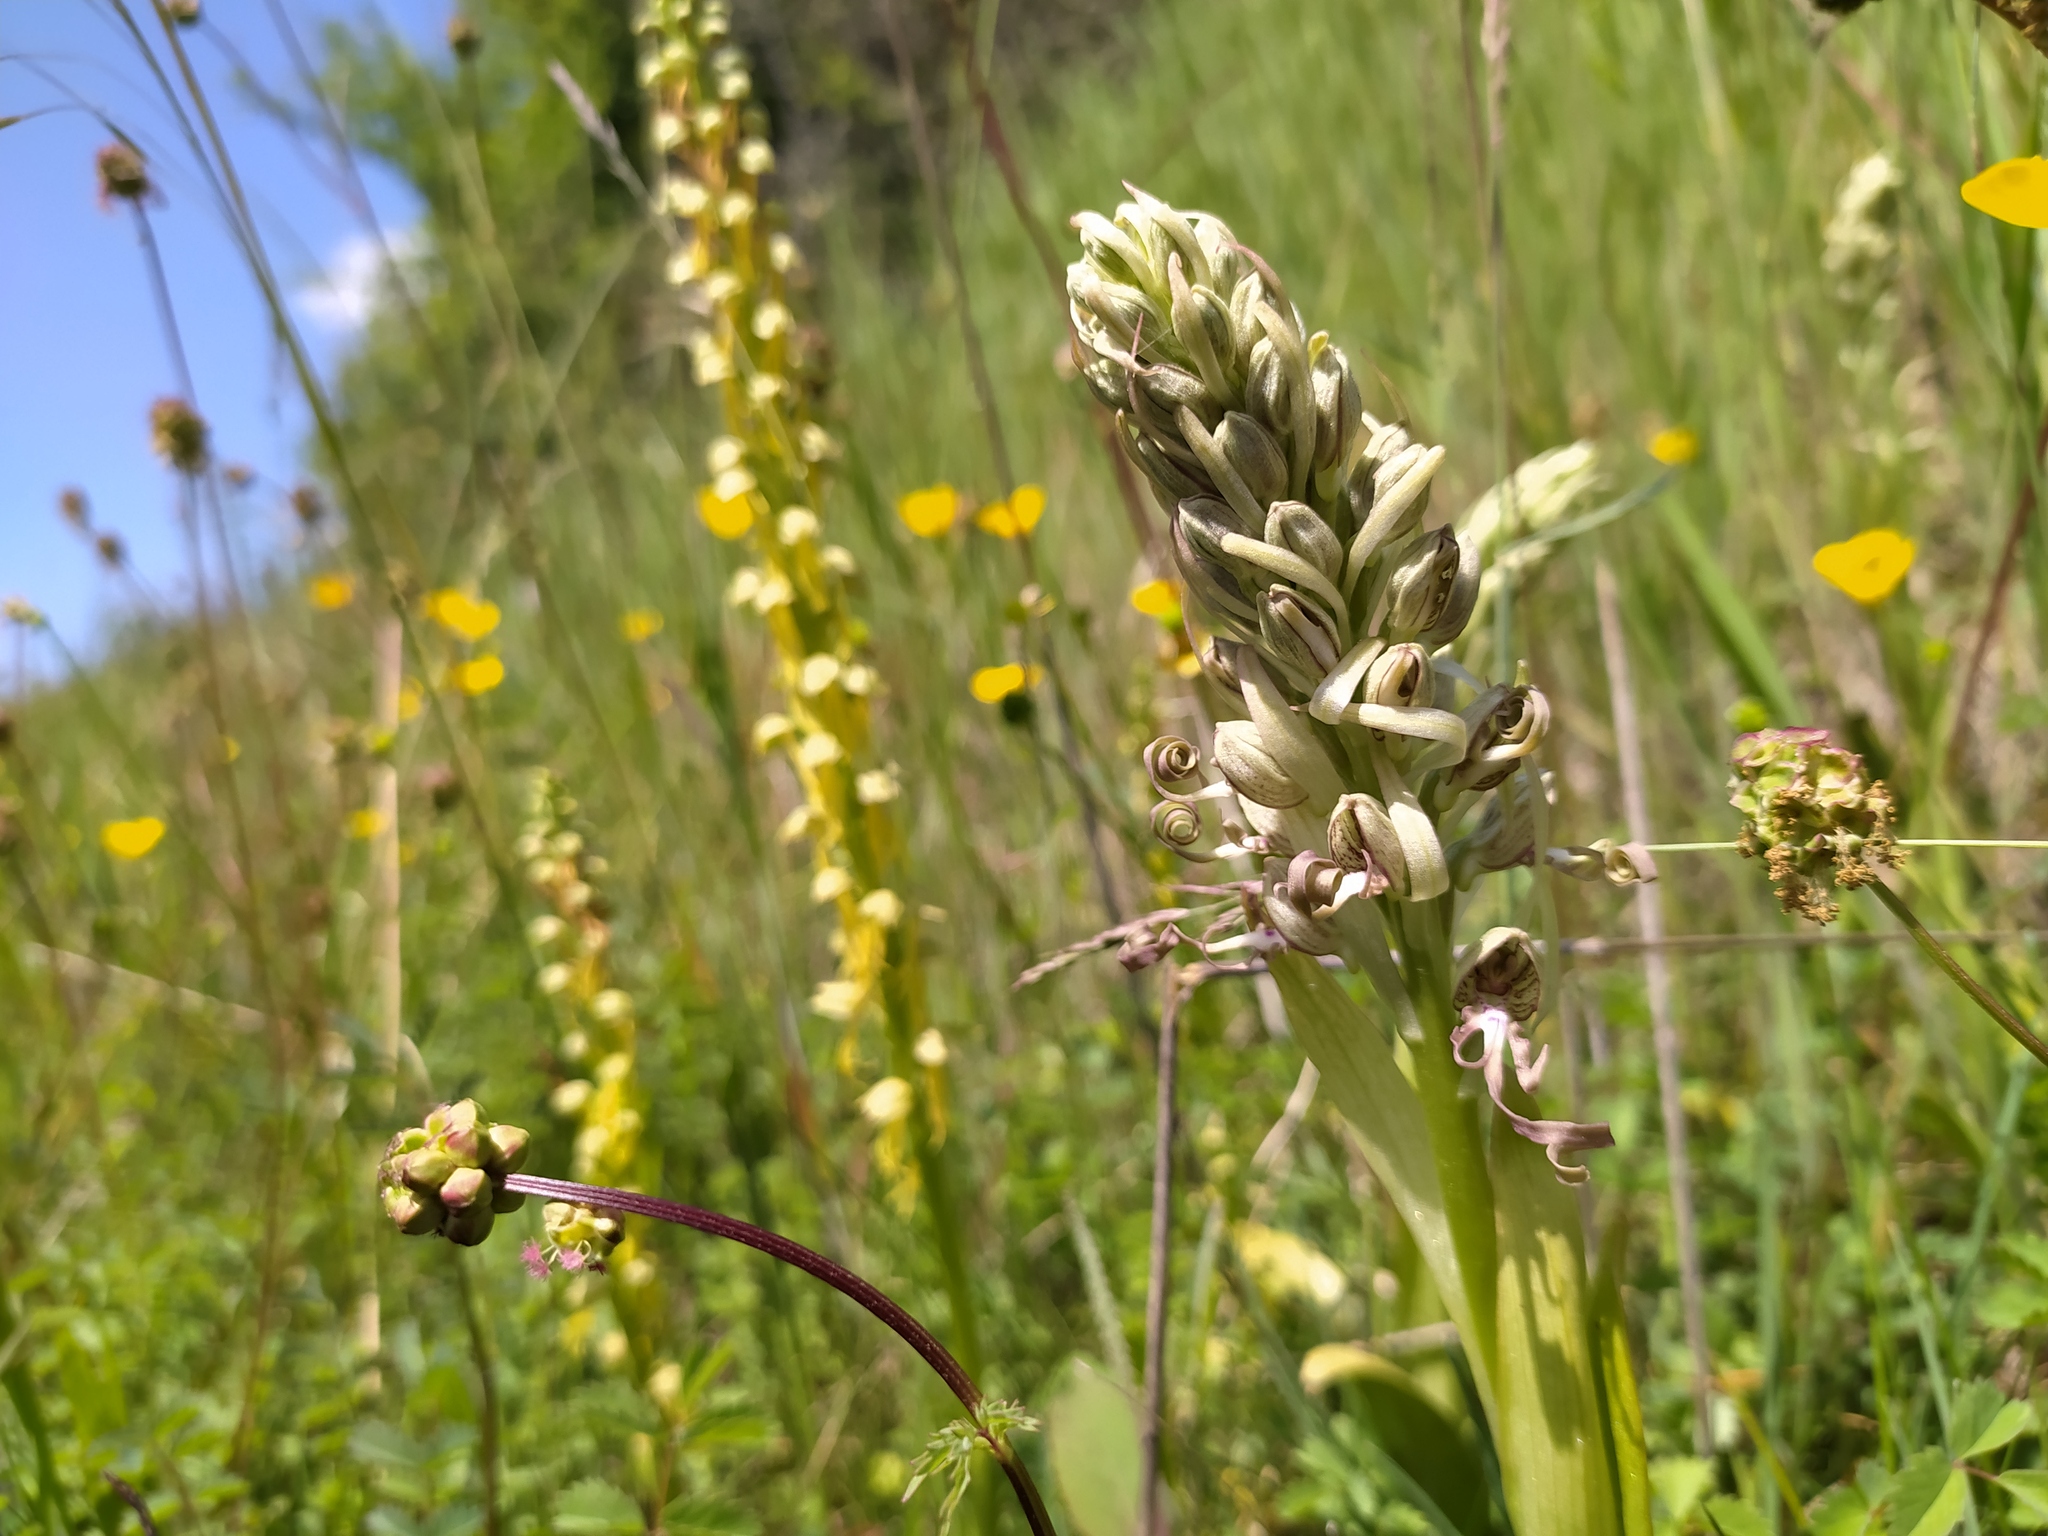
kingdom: Plantae
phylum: Tracheophyta
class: Liliopsida
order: Asparagales
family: Orchidaceae
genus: Himantoglossum
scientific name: Himantoglossum hircinum
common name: Lizard orchid
